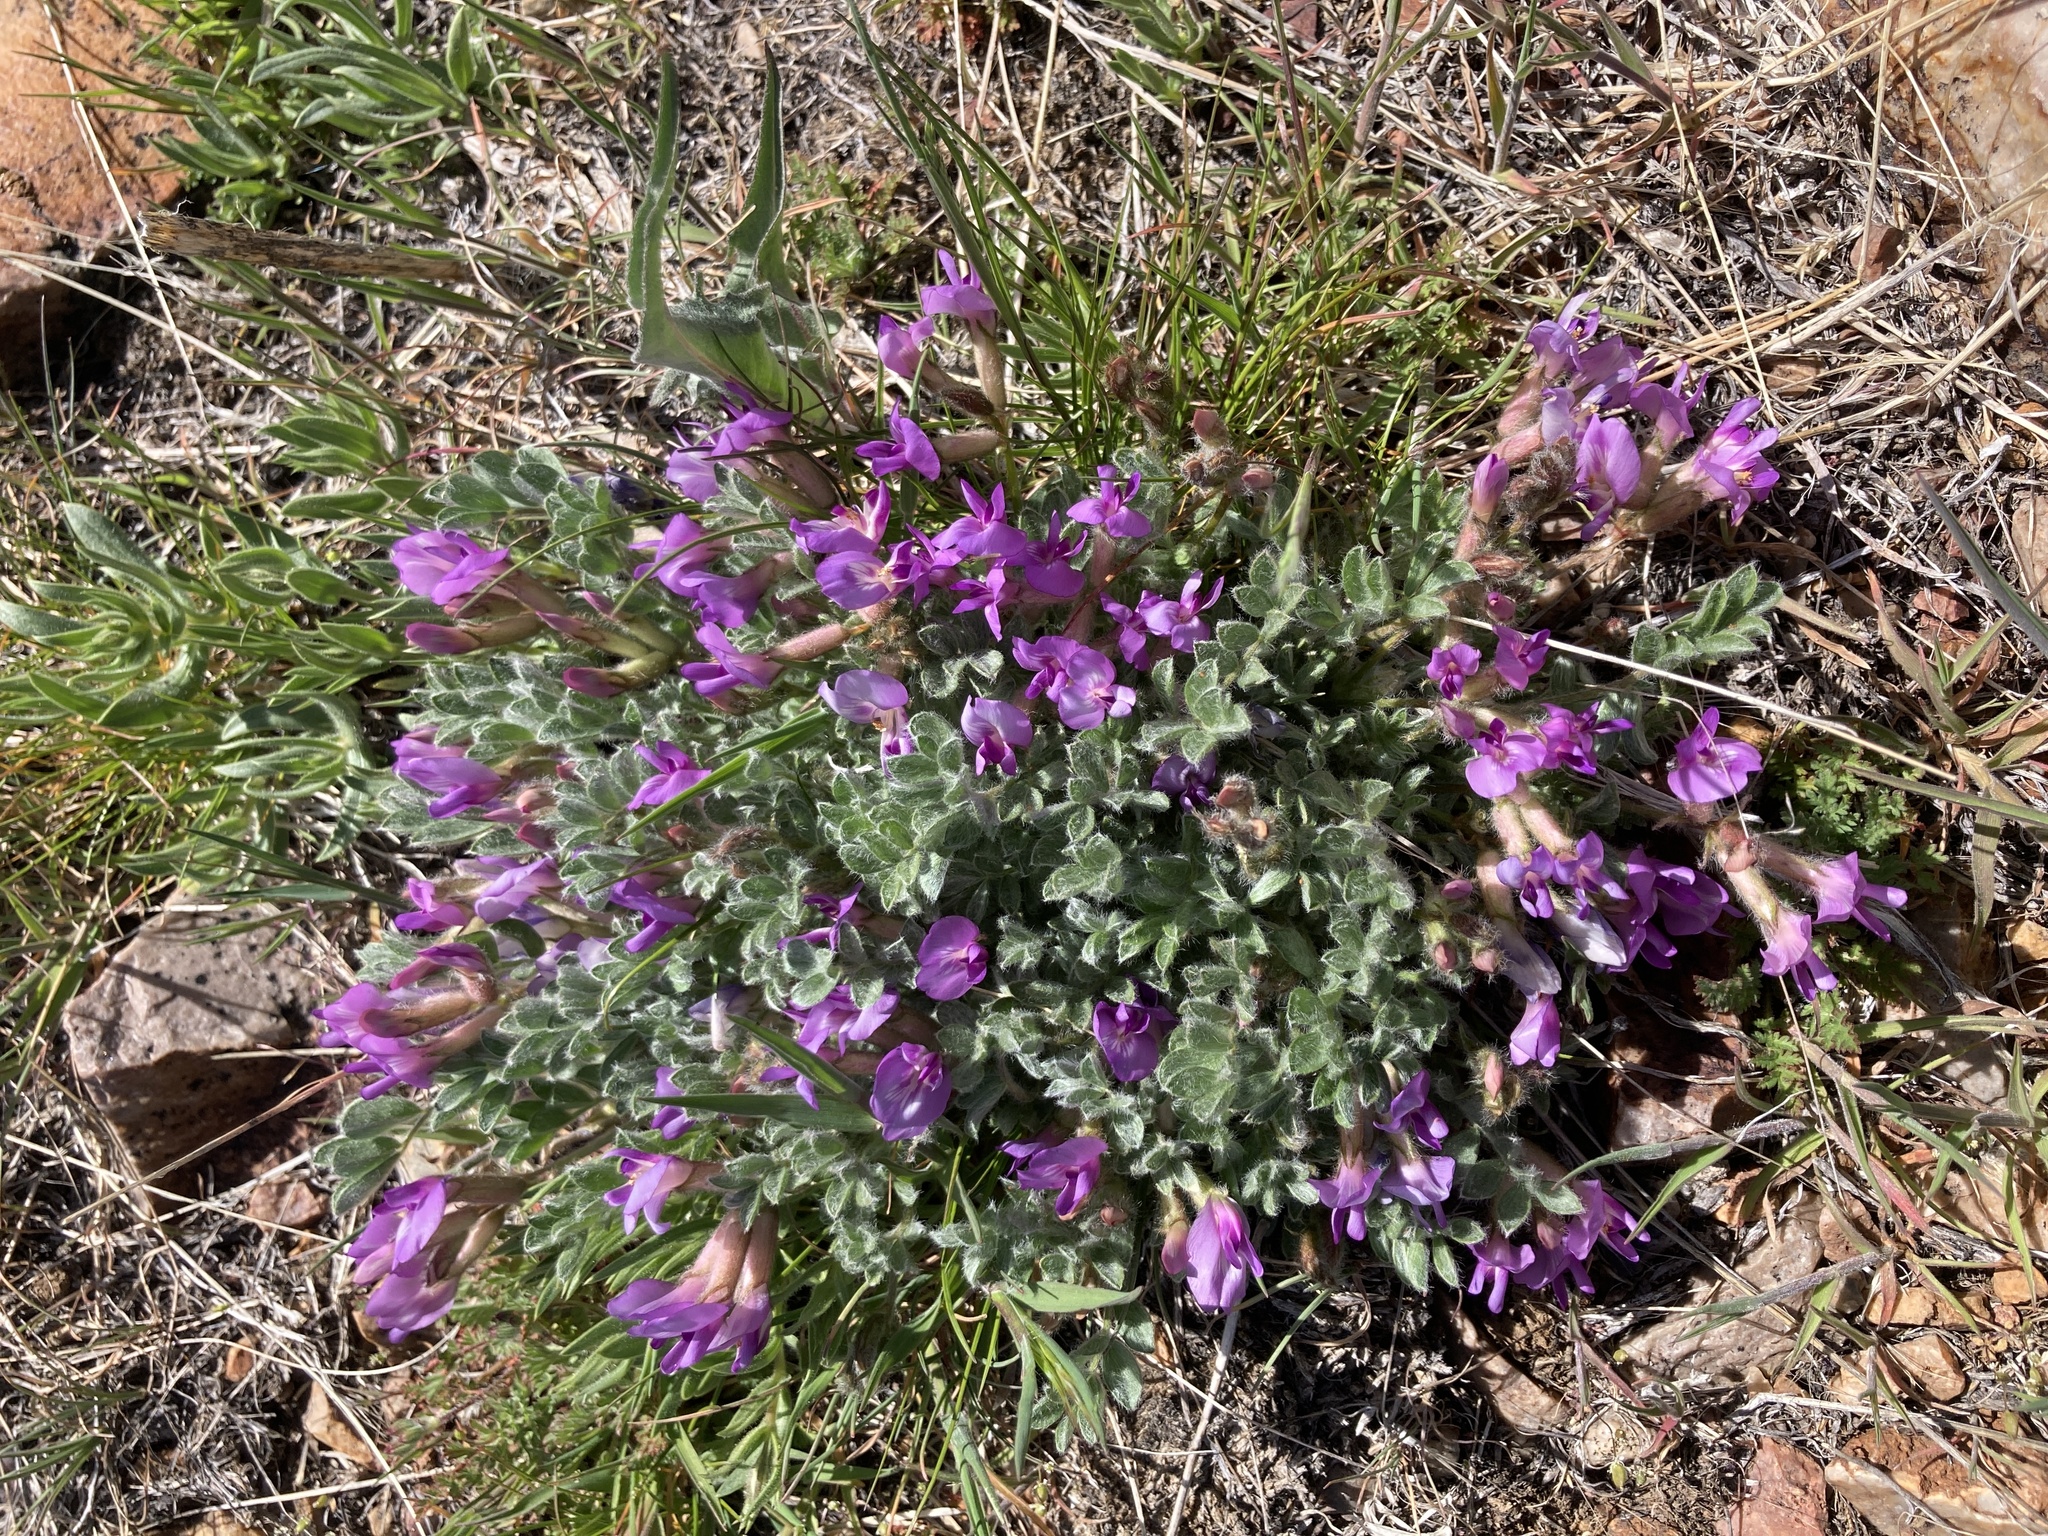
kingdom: Plantae
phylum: Tracheophyta
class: Magnoliopsida
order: Fabales
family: Fabaceae
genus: Astragalus
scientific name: Astragalus purshii
